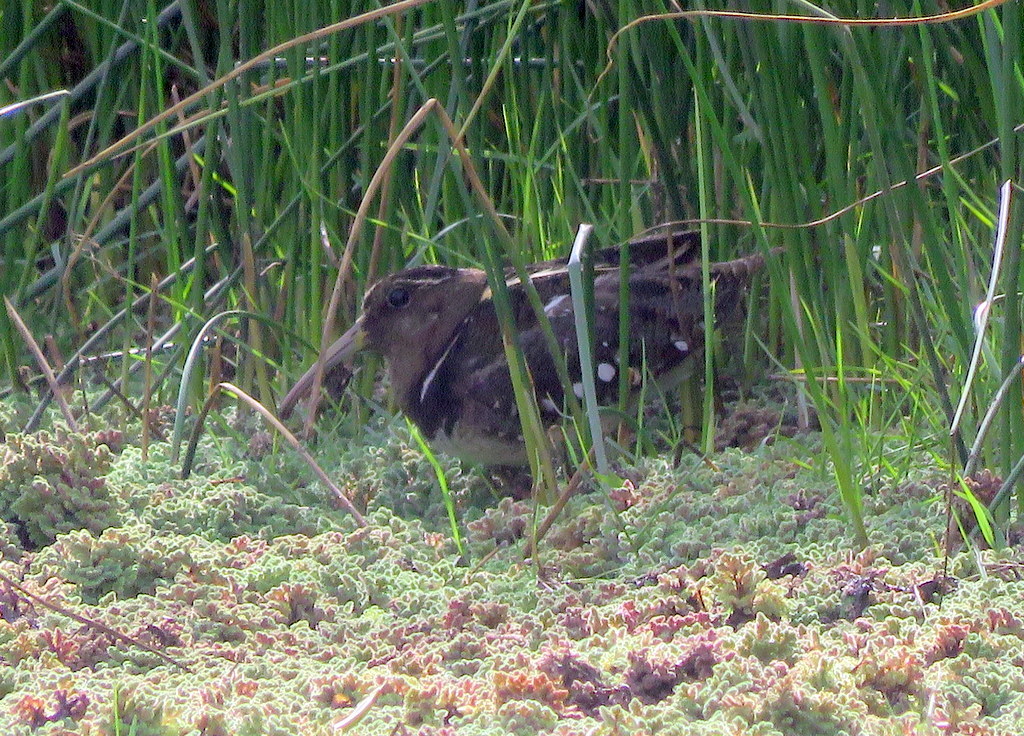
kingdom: Animalia
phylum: Chordata
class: Aves
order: Charadriiformes
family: Rostratulidae
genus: Nycticryphes
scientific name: Nycticryphes semicollaris
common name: South american painted-snipe
